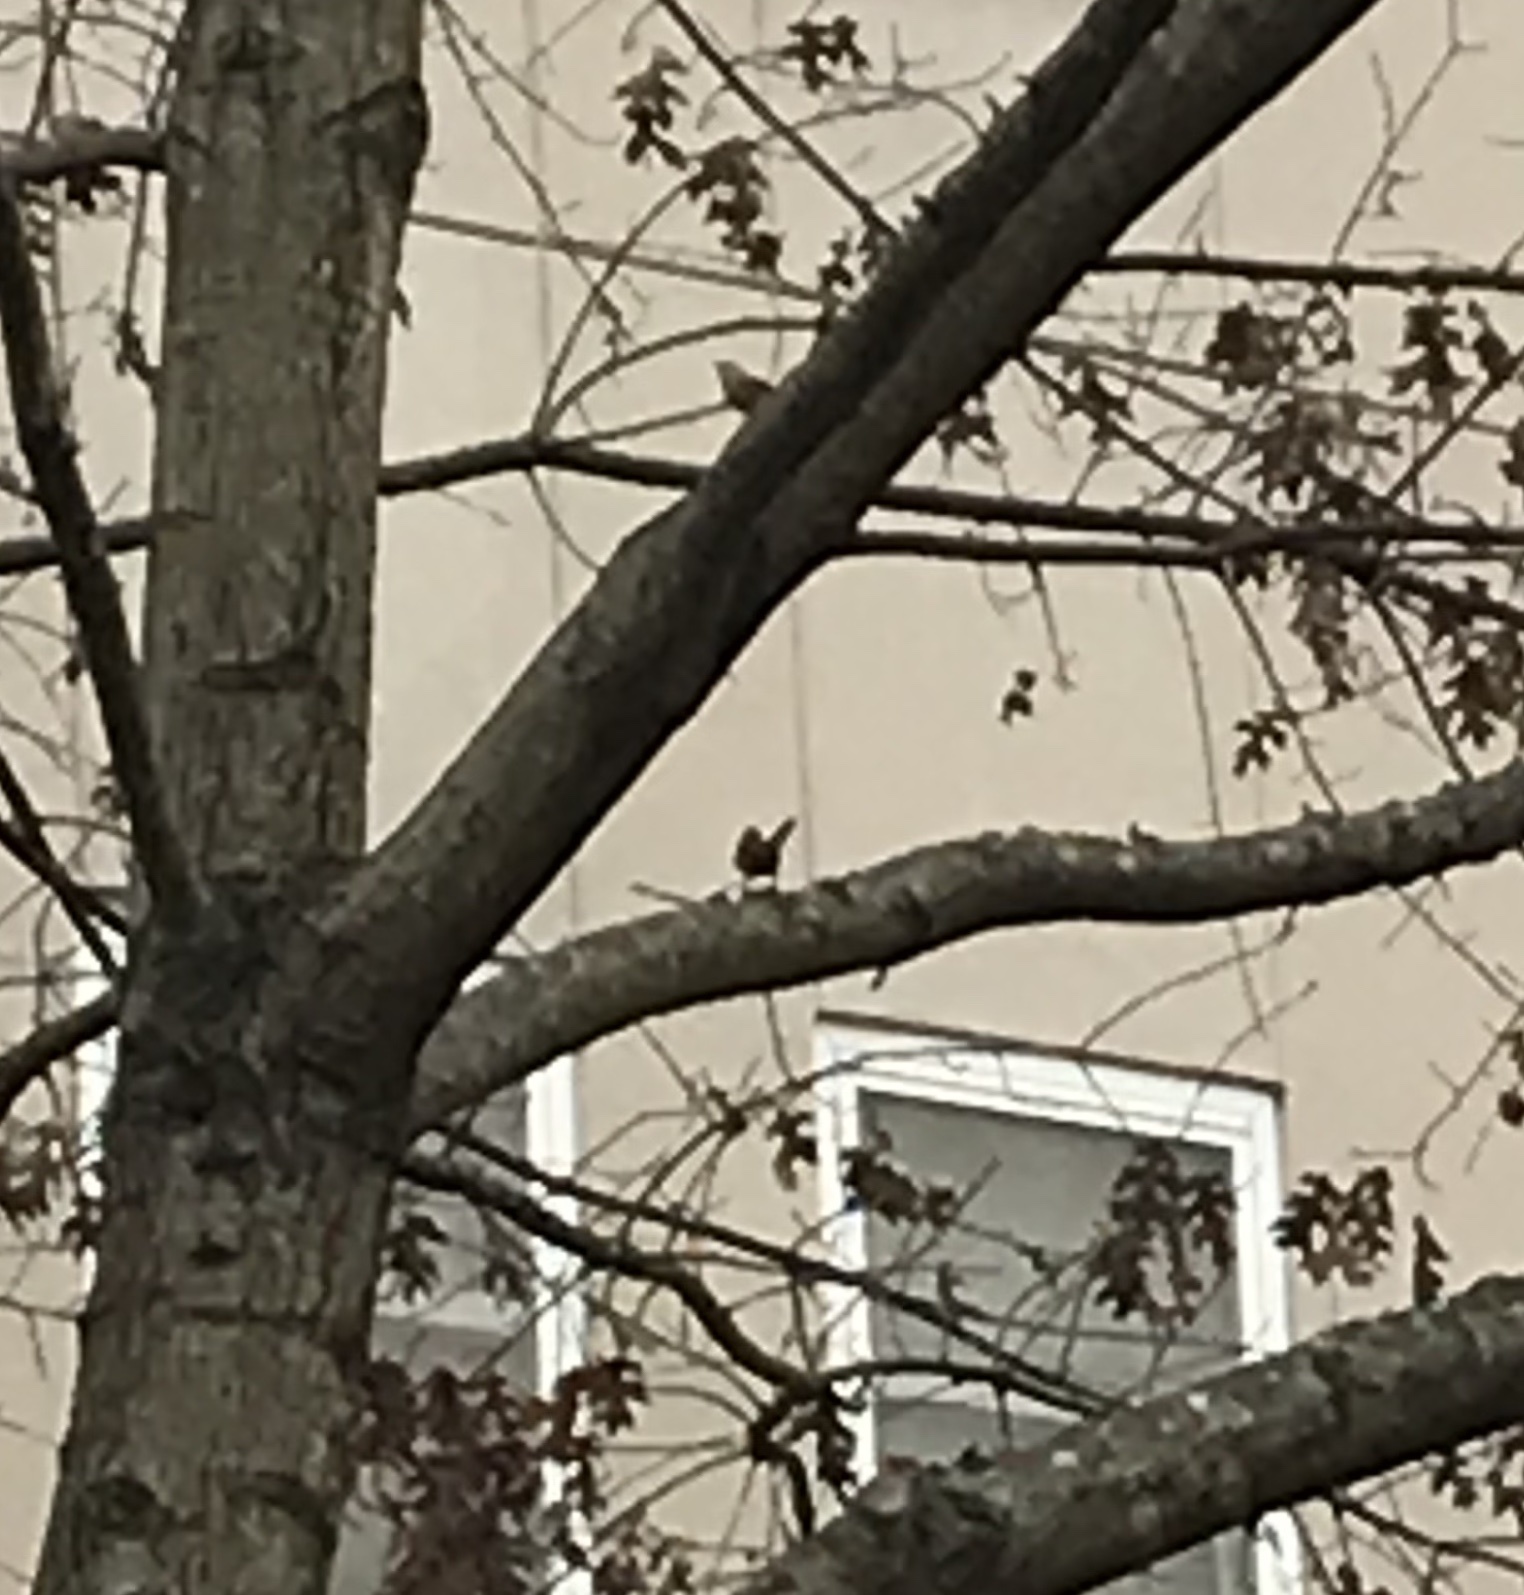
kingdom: Animalia
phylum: Chordata
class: Aves
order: Passeriformes
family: Troglodytidae
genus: Thryothorus
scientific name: Thryothorus ludovicianus
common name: Carolina wren
